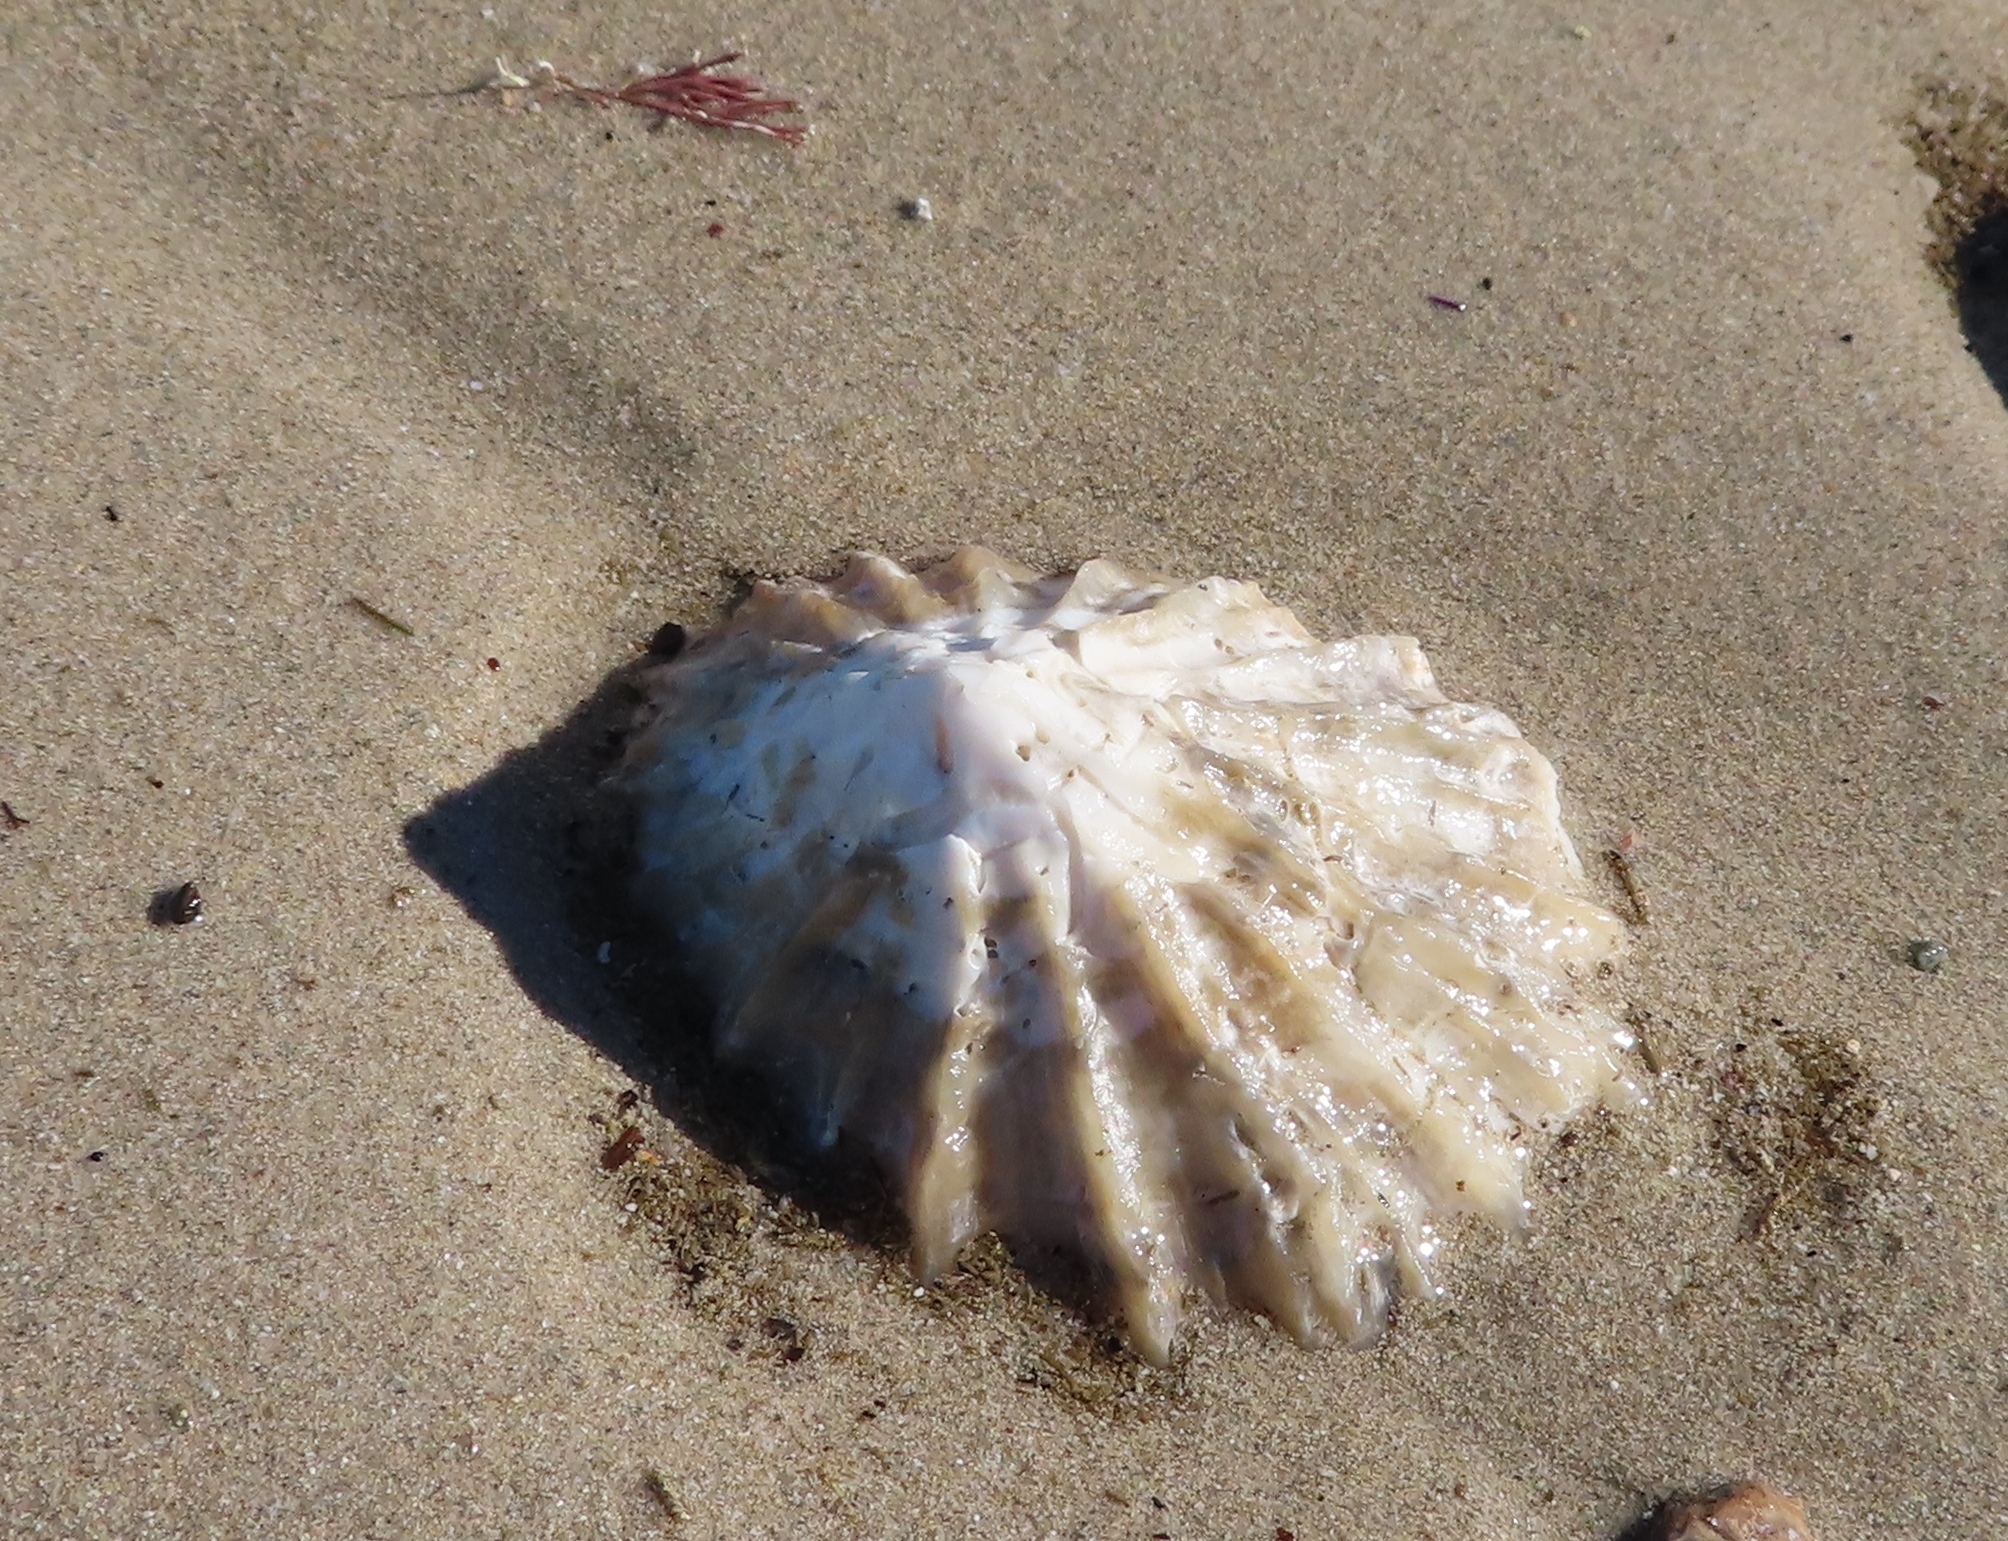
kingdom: Animalia
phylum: Mollusca
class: Gastropoda
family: Patellidae
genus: Scutellastra
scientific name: Scutellastra barbara
